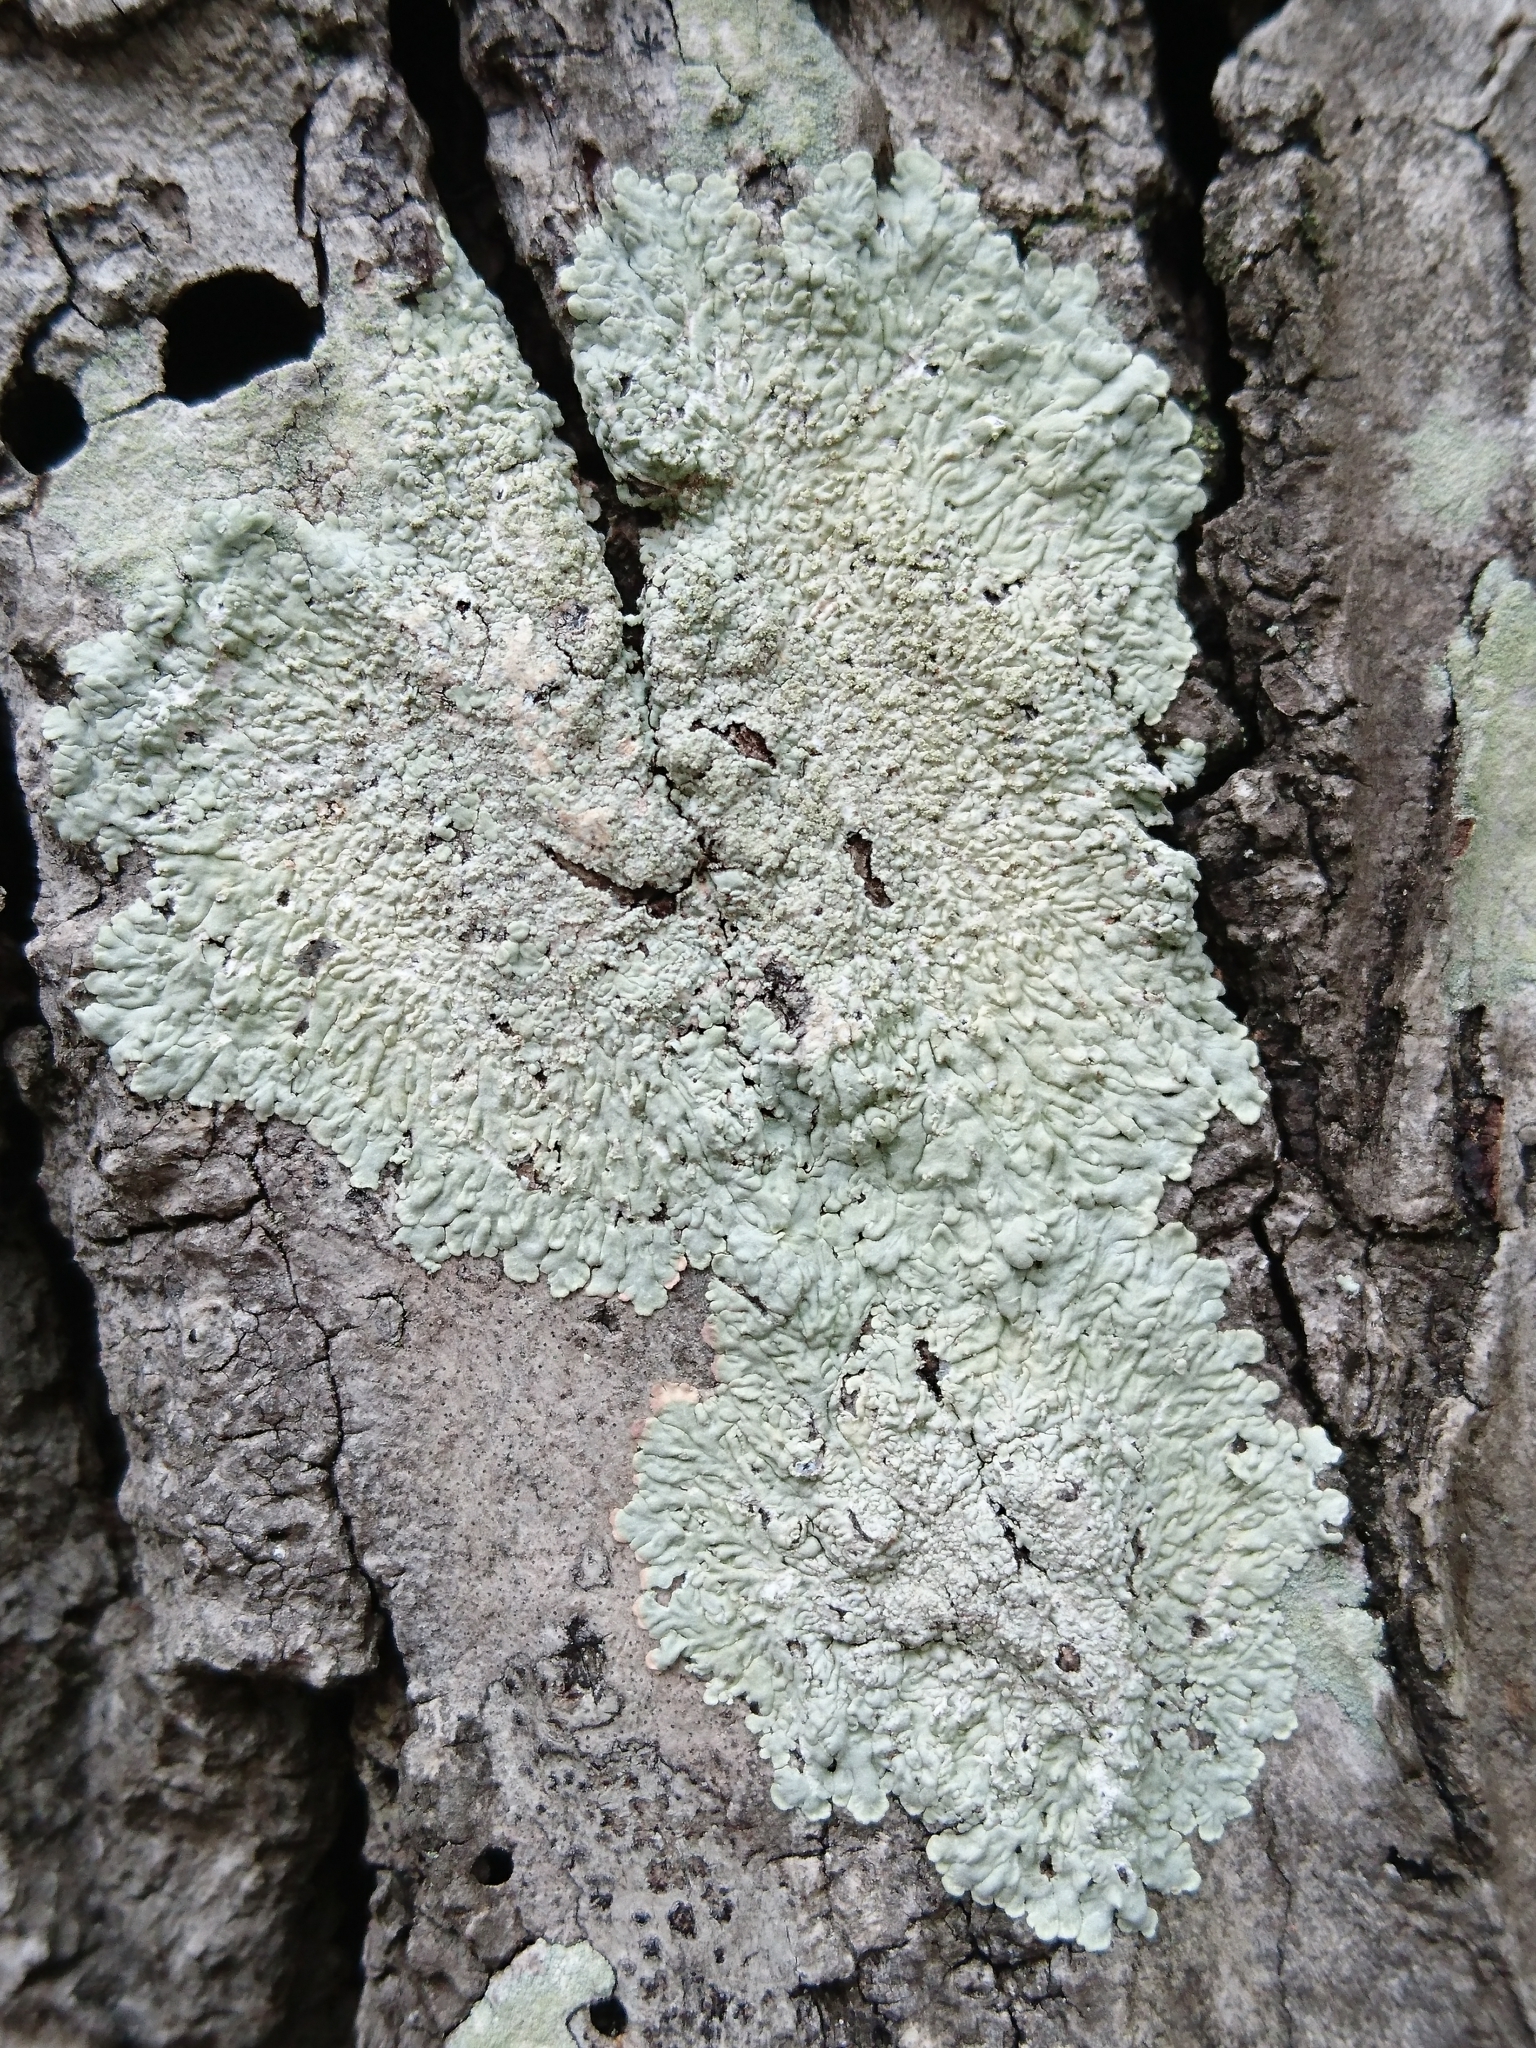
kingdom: Fungi
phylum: Ascomycota
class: Lecanoromycetes
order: Caliciales
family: Caliciaceae
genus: Dirinaria
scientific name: Dirinaria aegialita
